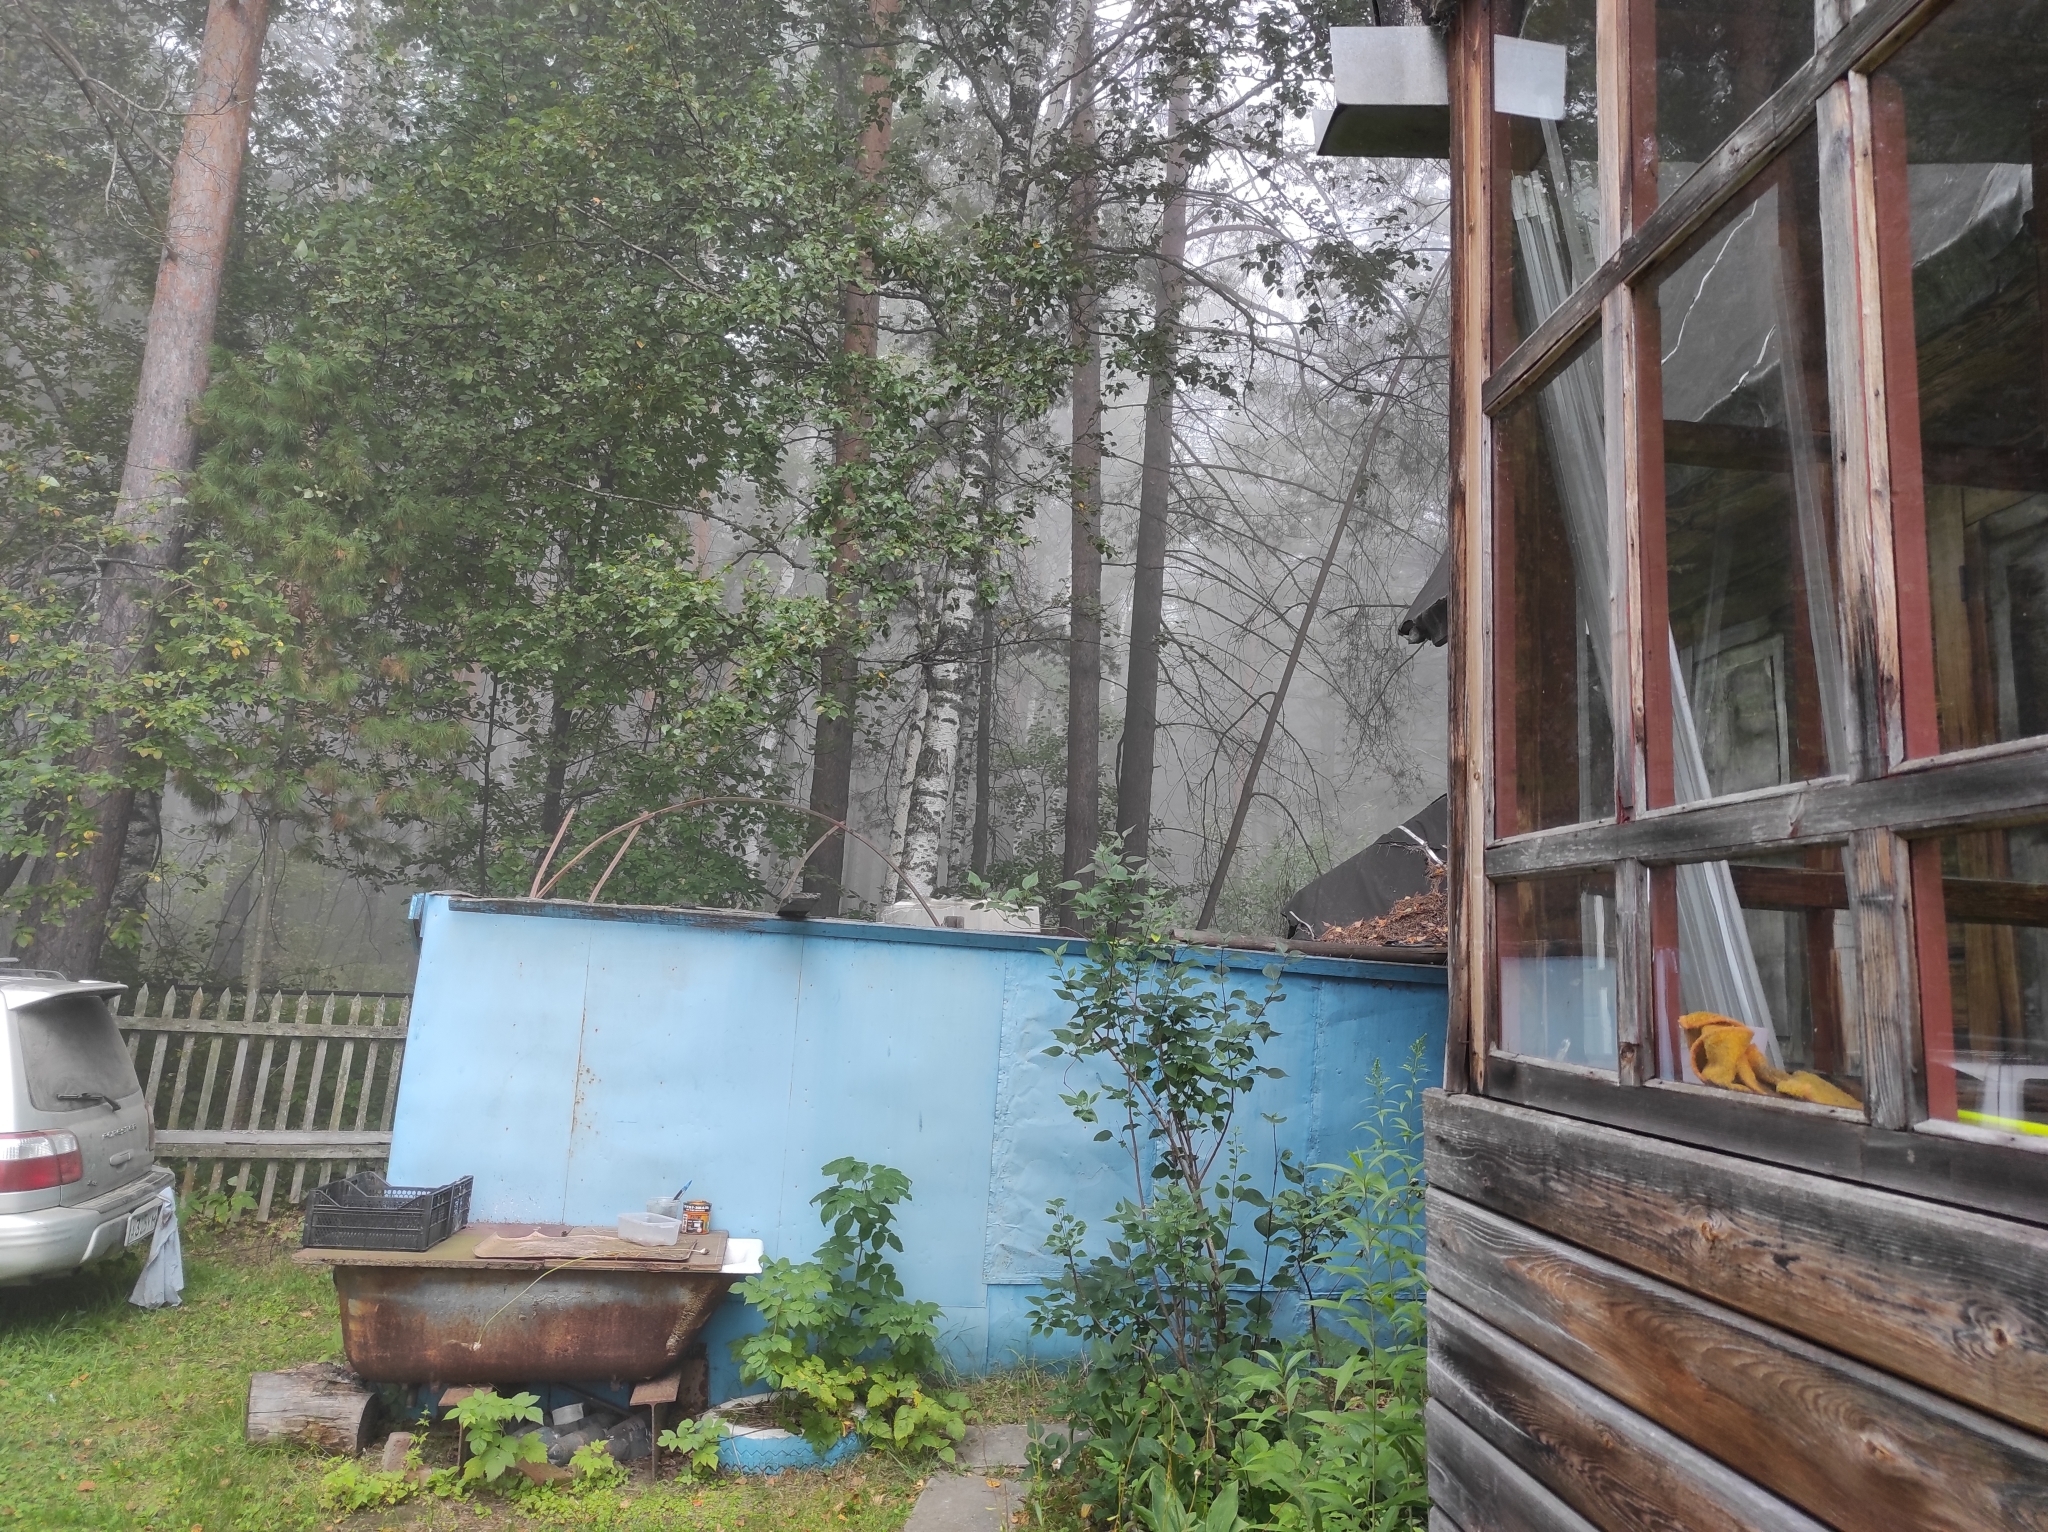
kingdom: Plantae
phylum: Tracheophyta
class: Pinopsida
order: Pinales
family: Pinaceae
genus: Pinus
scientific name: Pinus sylvestris
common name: Scots pine
